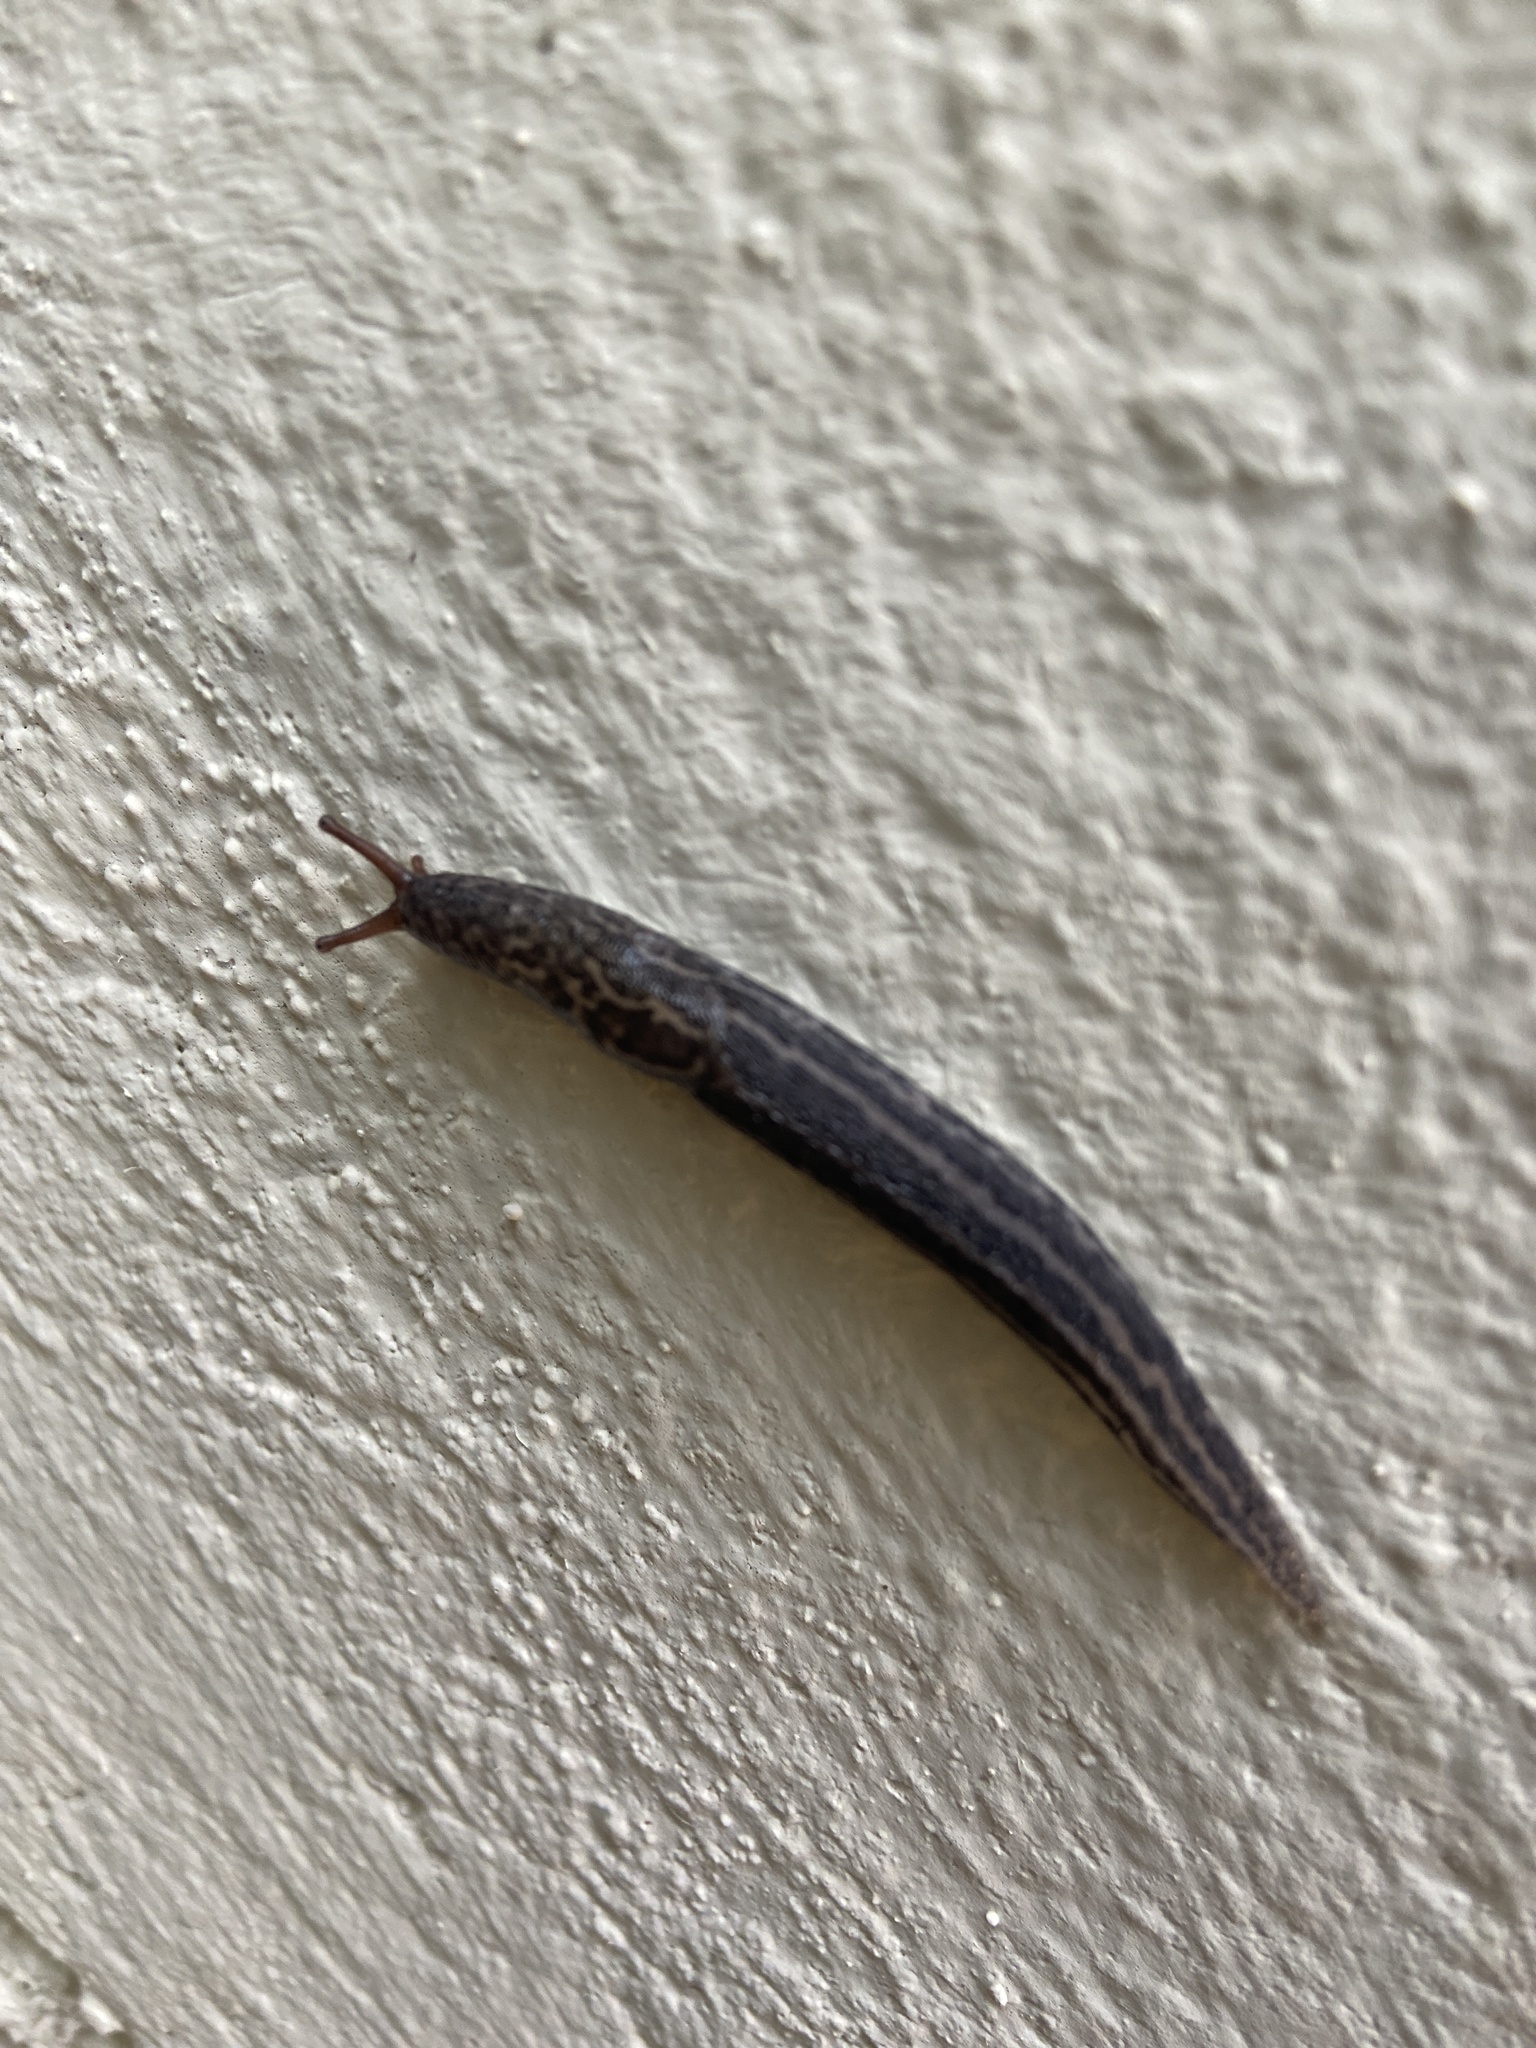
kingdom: Animalia
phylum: Mollusca
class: Gastropoda
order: Stylommatophora
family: Limacidae
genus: Limax
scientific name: Limax maximus
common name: Great grey slug
